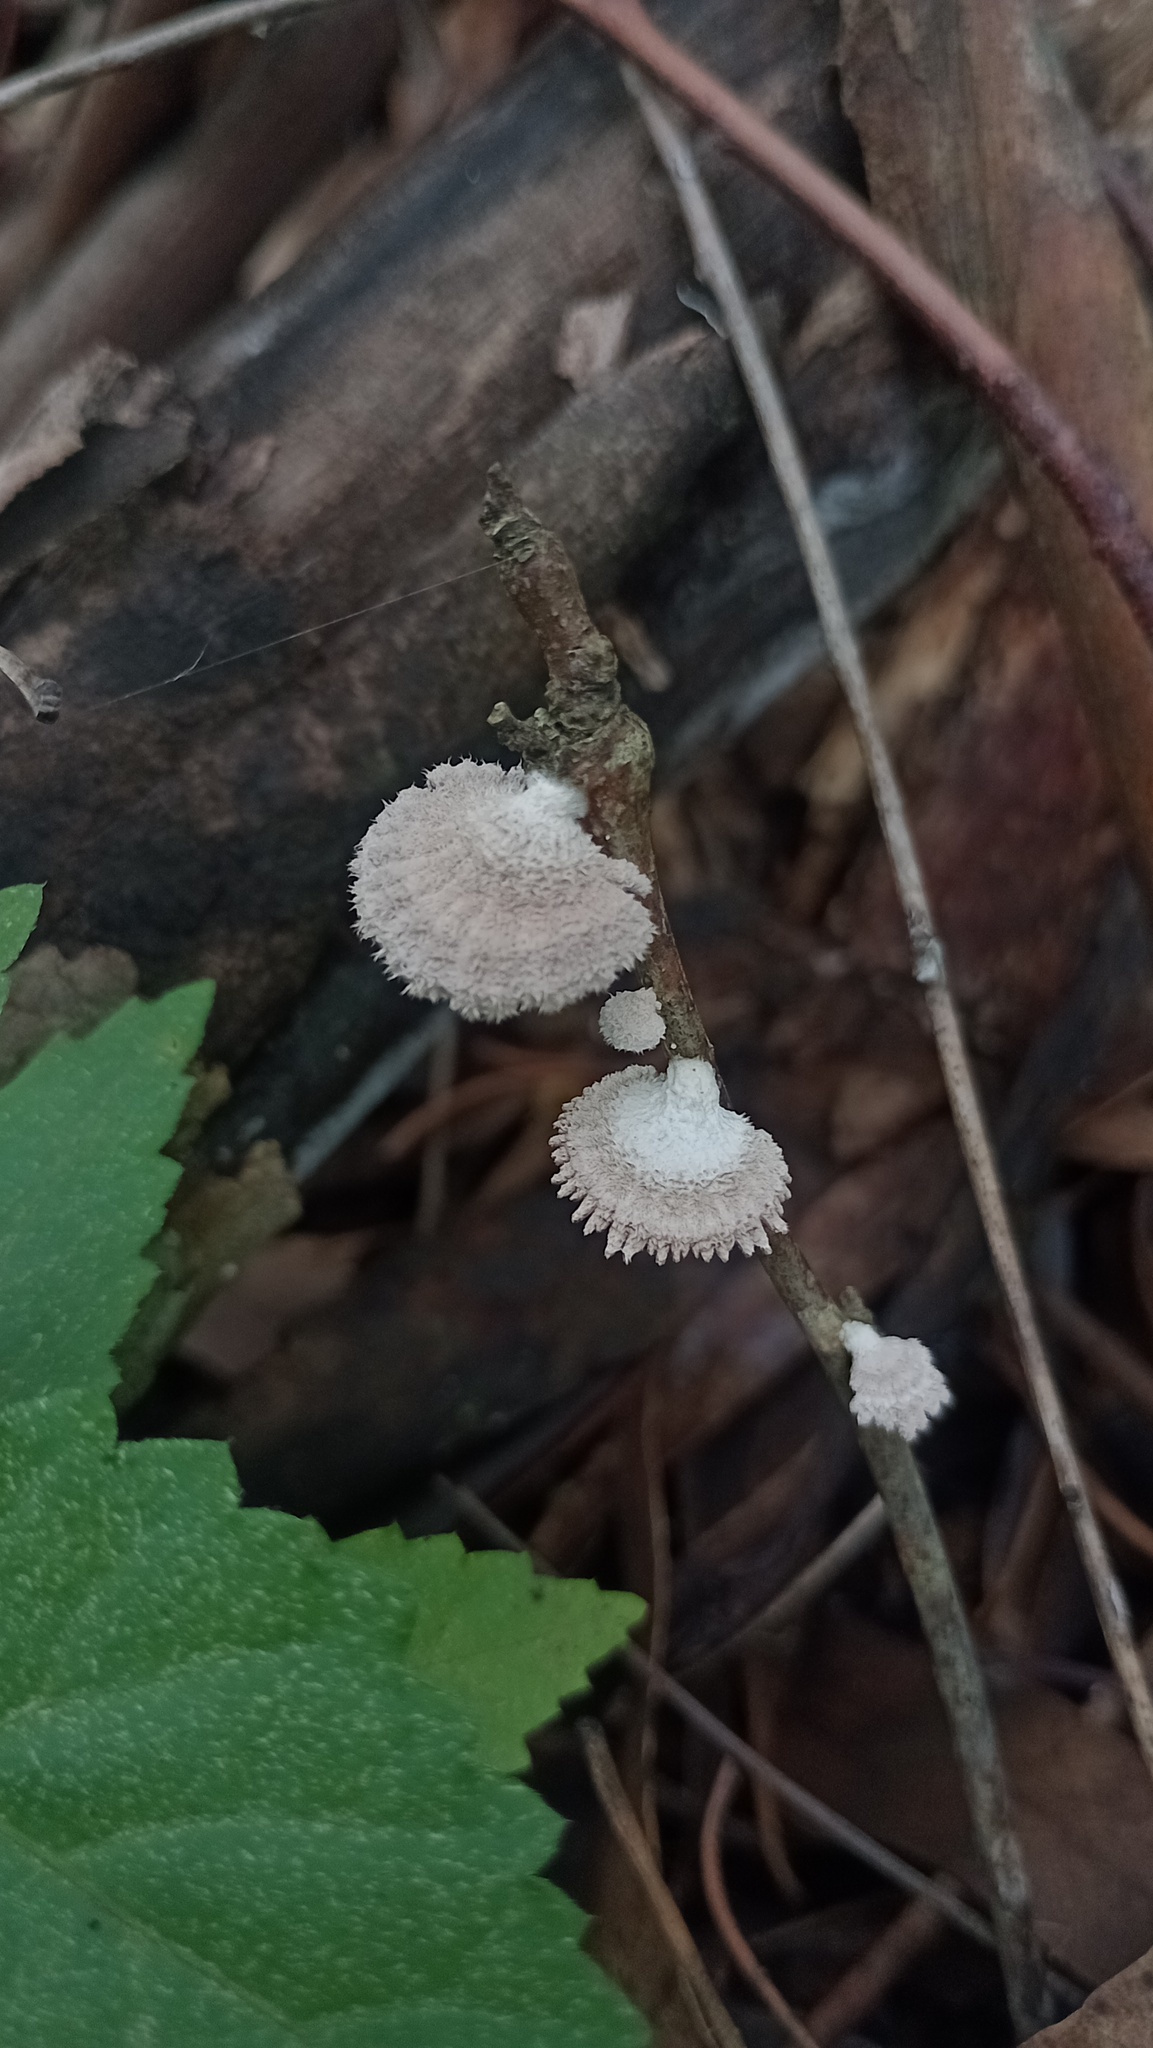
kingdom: Fungi
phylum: Basidiomycota
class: Agaricomycetes
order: Agaricales
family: Schizophyllaceae
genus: Schizophyllum
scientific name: Schizophyllum commune
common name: Common porecrust
